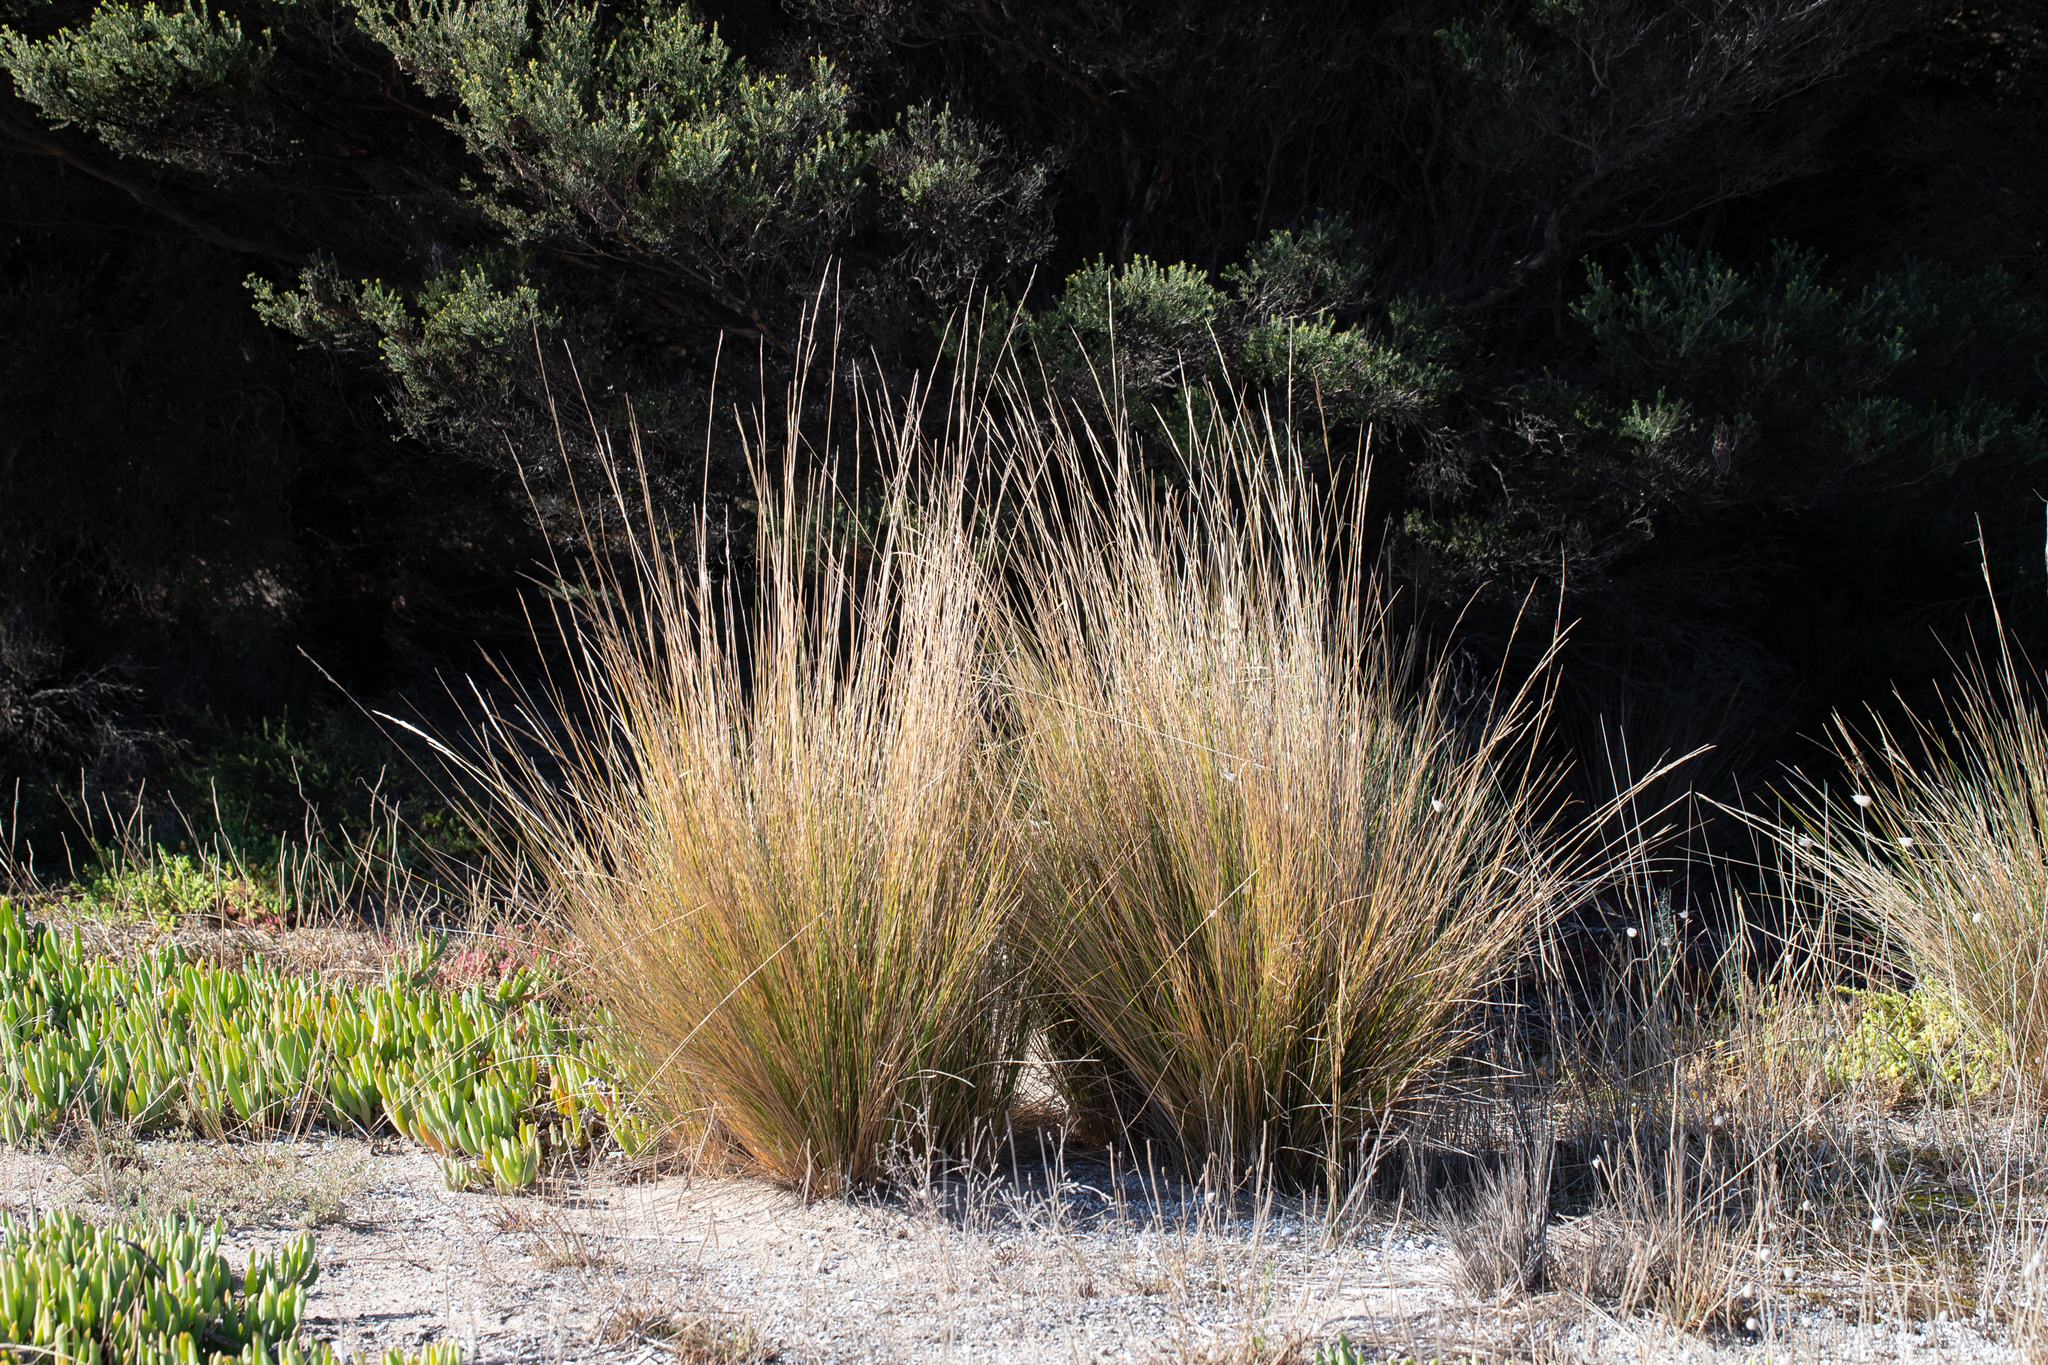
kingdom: Plantae
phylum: Tracheophyta
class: Liliopsida
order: Poales
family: Poaceae
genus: Austrostipa
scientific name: Austrostipa stipoides
